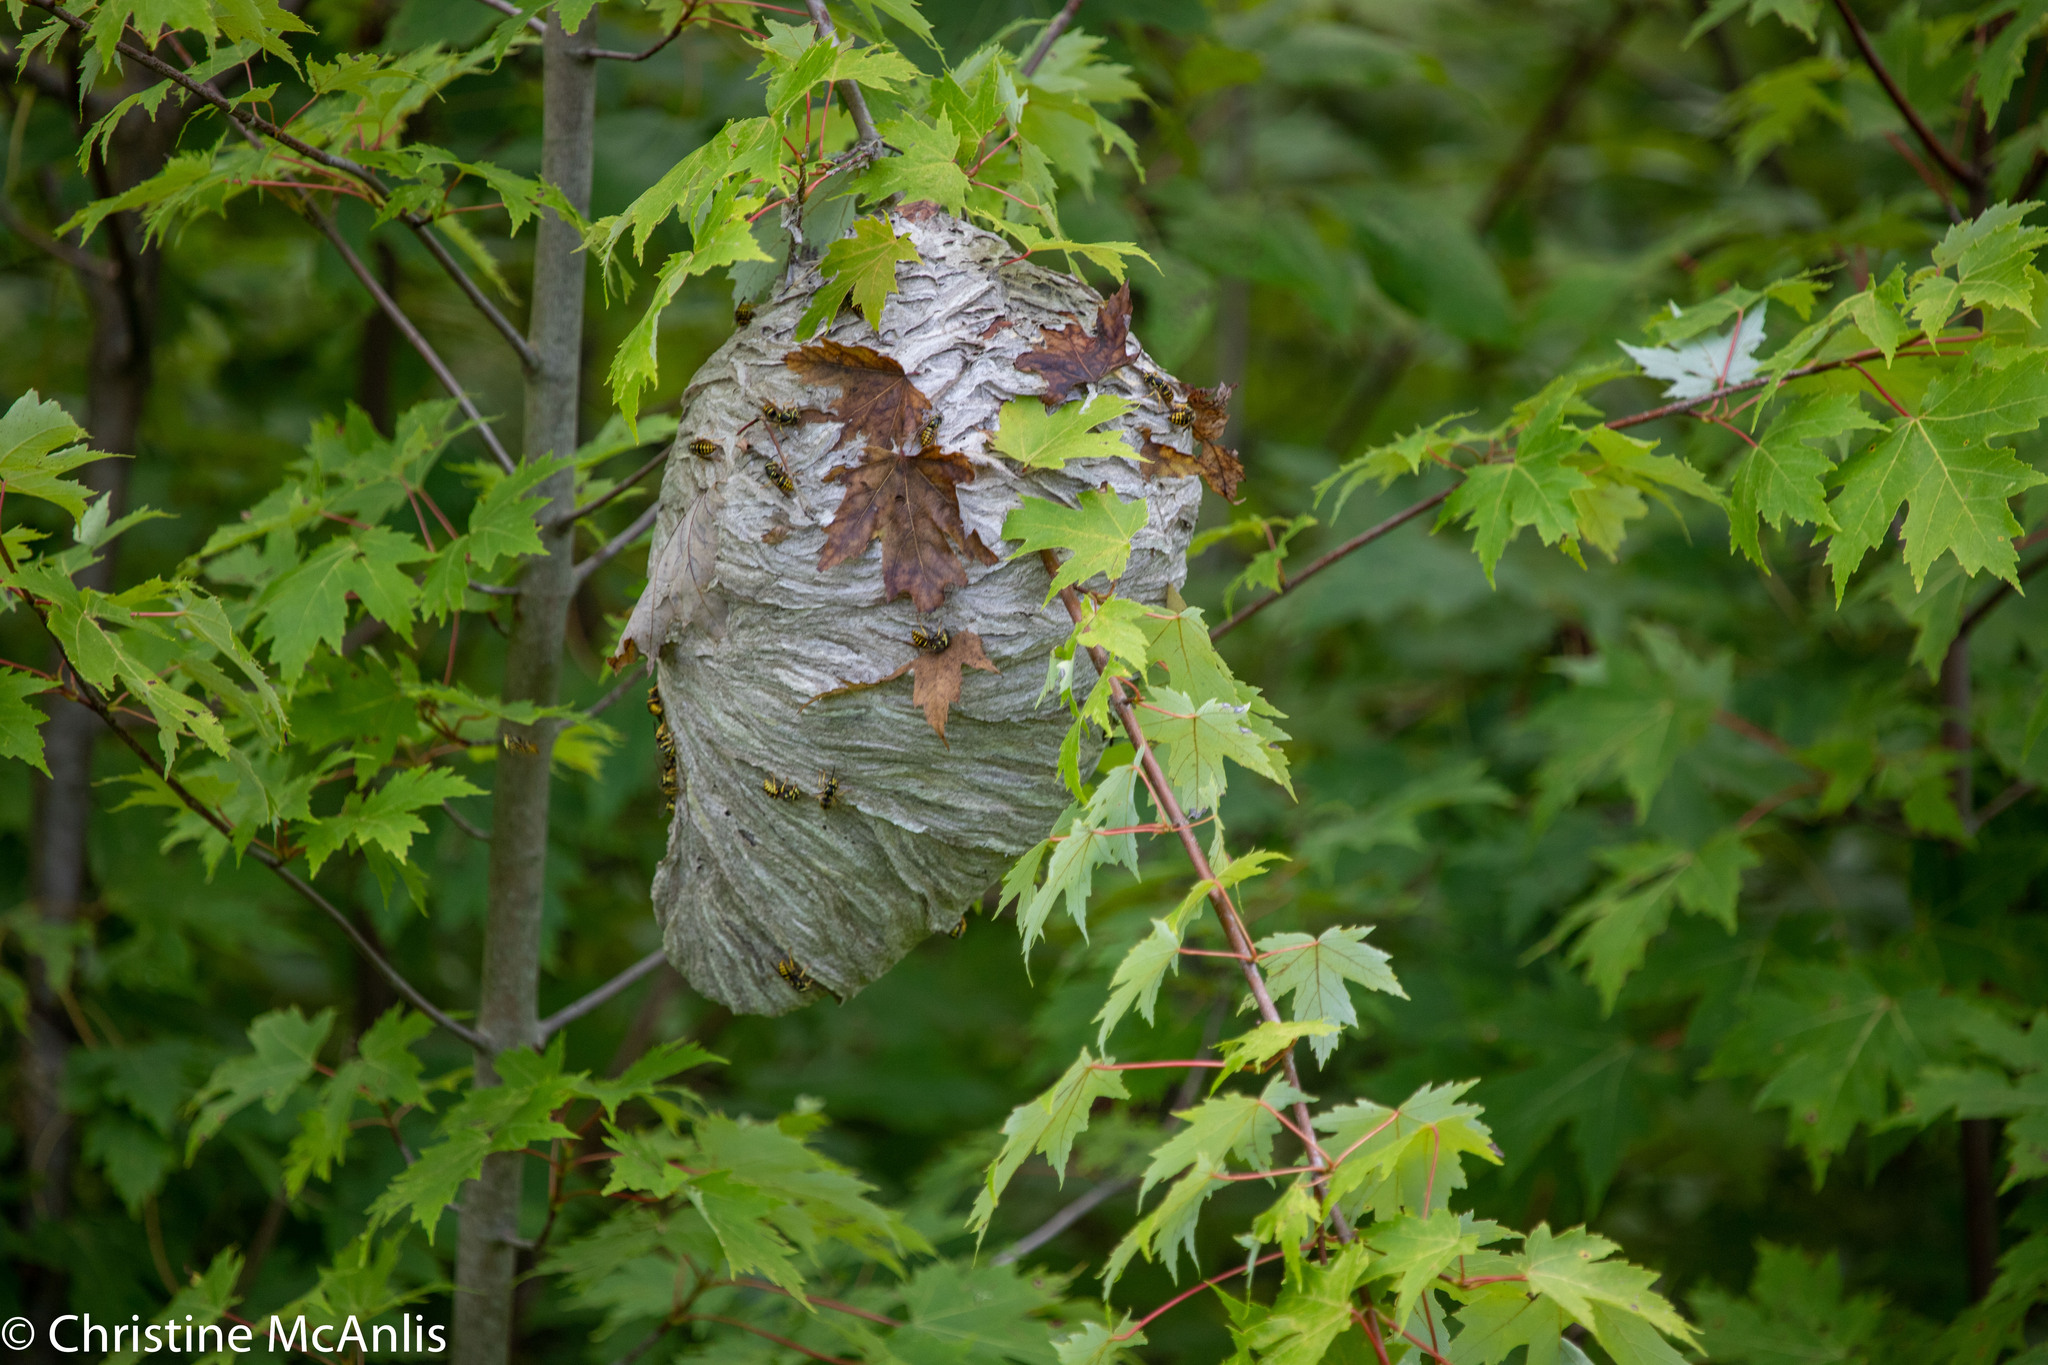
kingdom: Animalia
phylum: Arthropoda
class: Insecta
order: Hymenoptera
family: Vespidae
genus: Dolichovespula
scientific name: Dolichovespula arenaria
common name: Aerial yellowjacket
